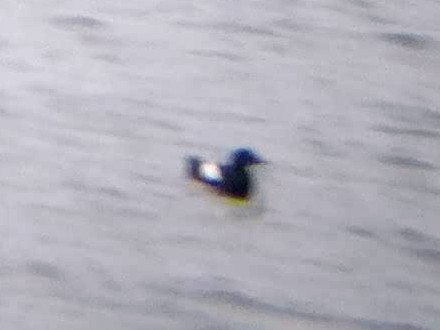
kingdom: Animalia
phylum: Chordata
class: Aves
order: Charadriiformes
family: Alcidae
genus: Cepphus
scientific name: Cepphus grylle
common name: Black guillemot
